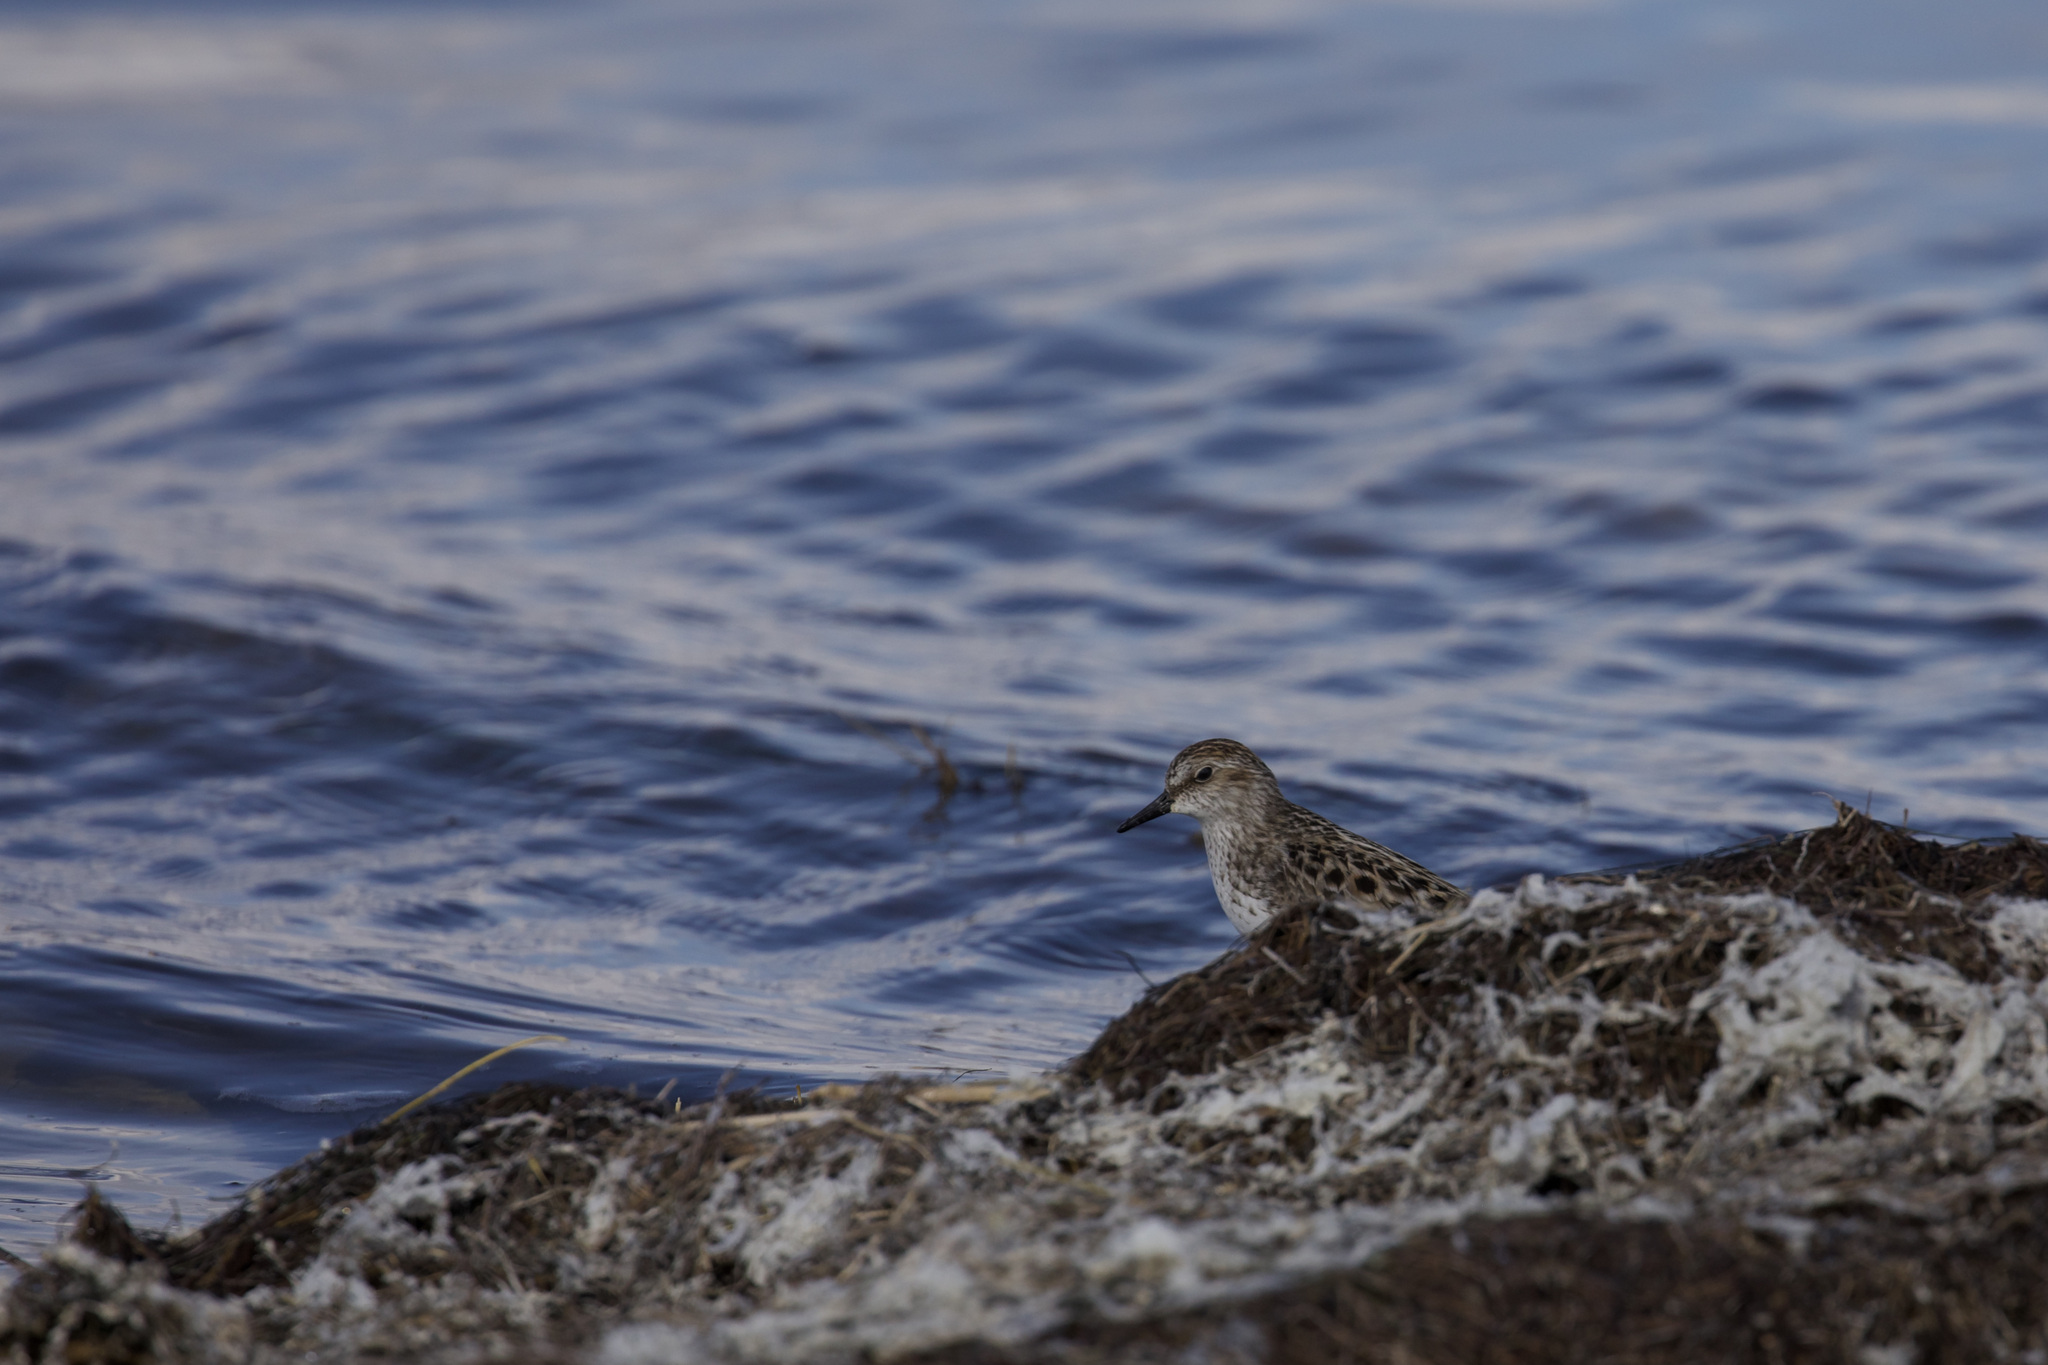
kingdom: Animalia
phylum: Chordata
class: Aves
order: Charadriiformes
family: Scolopacidae
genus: Calidris
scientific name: Calidris pusilla
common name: Semipalmated sandpiper
